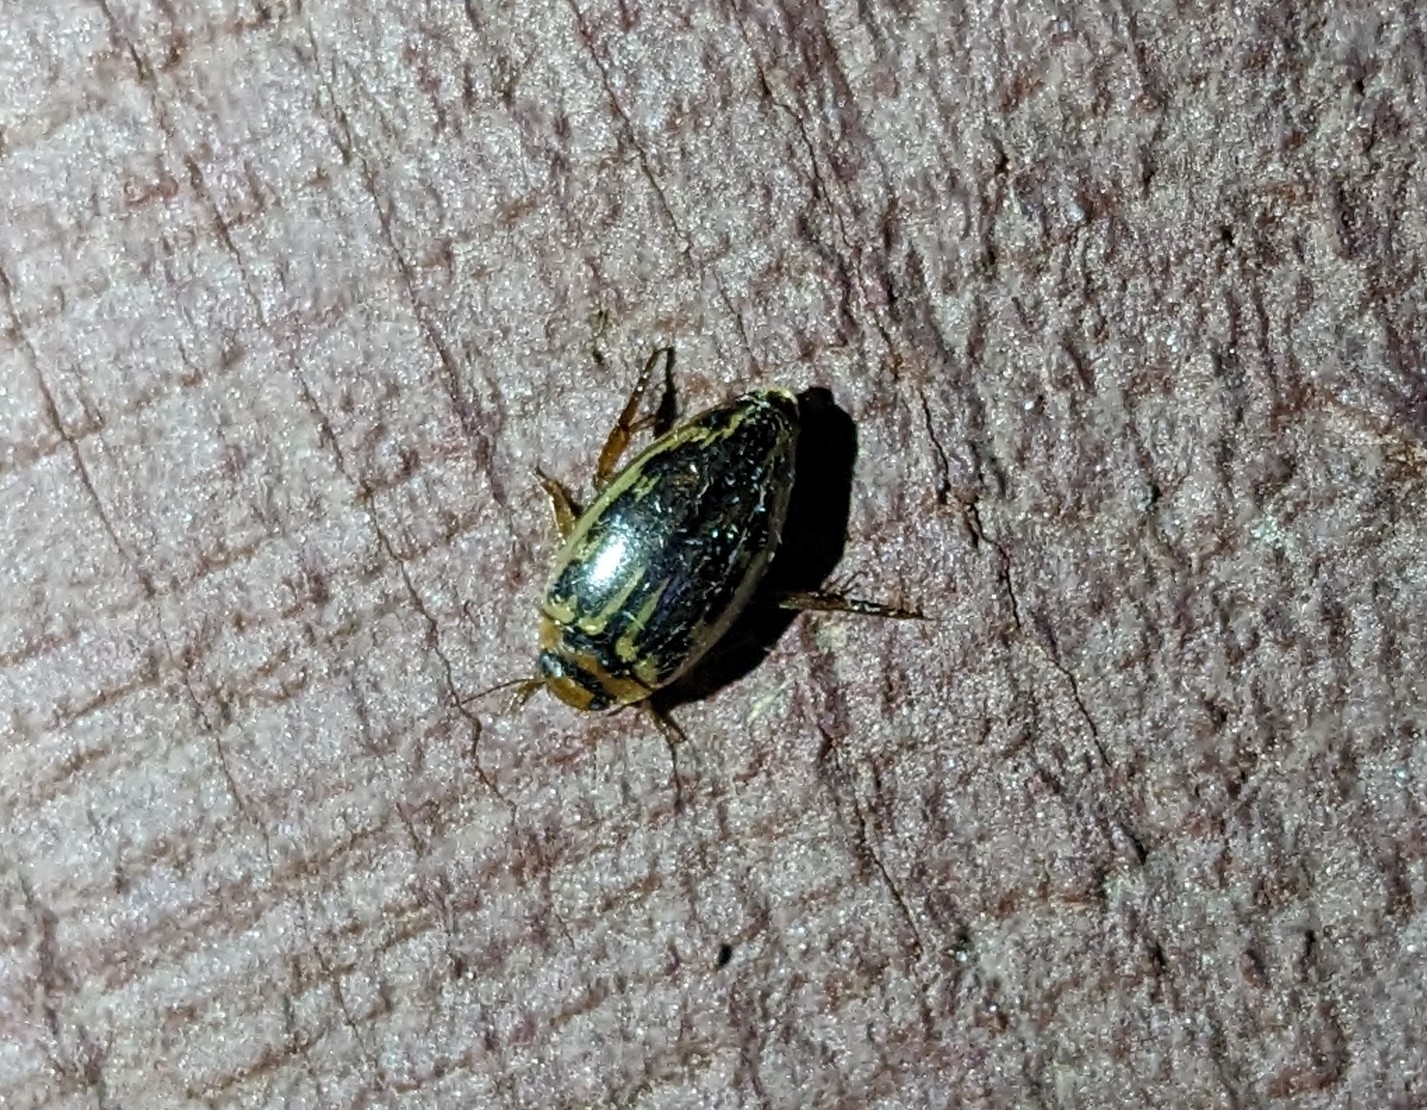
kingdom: Animalia
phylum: Arthropoda
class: Insecta
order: Coleoptera
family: Dytiscidae
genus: Coptotomus
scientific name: Coptotomus longulus
